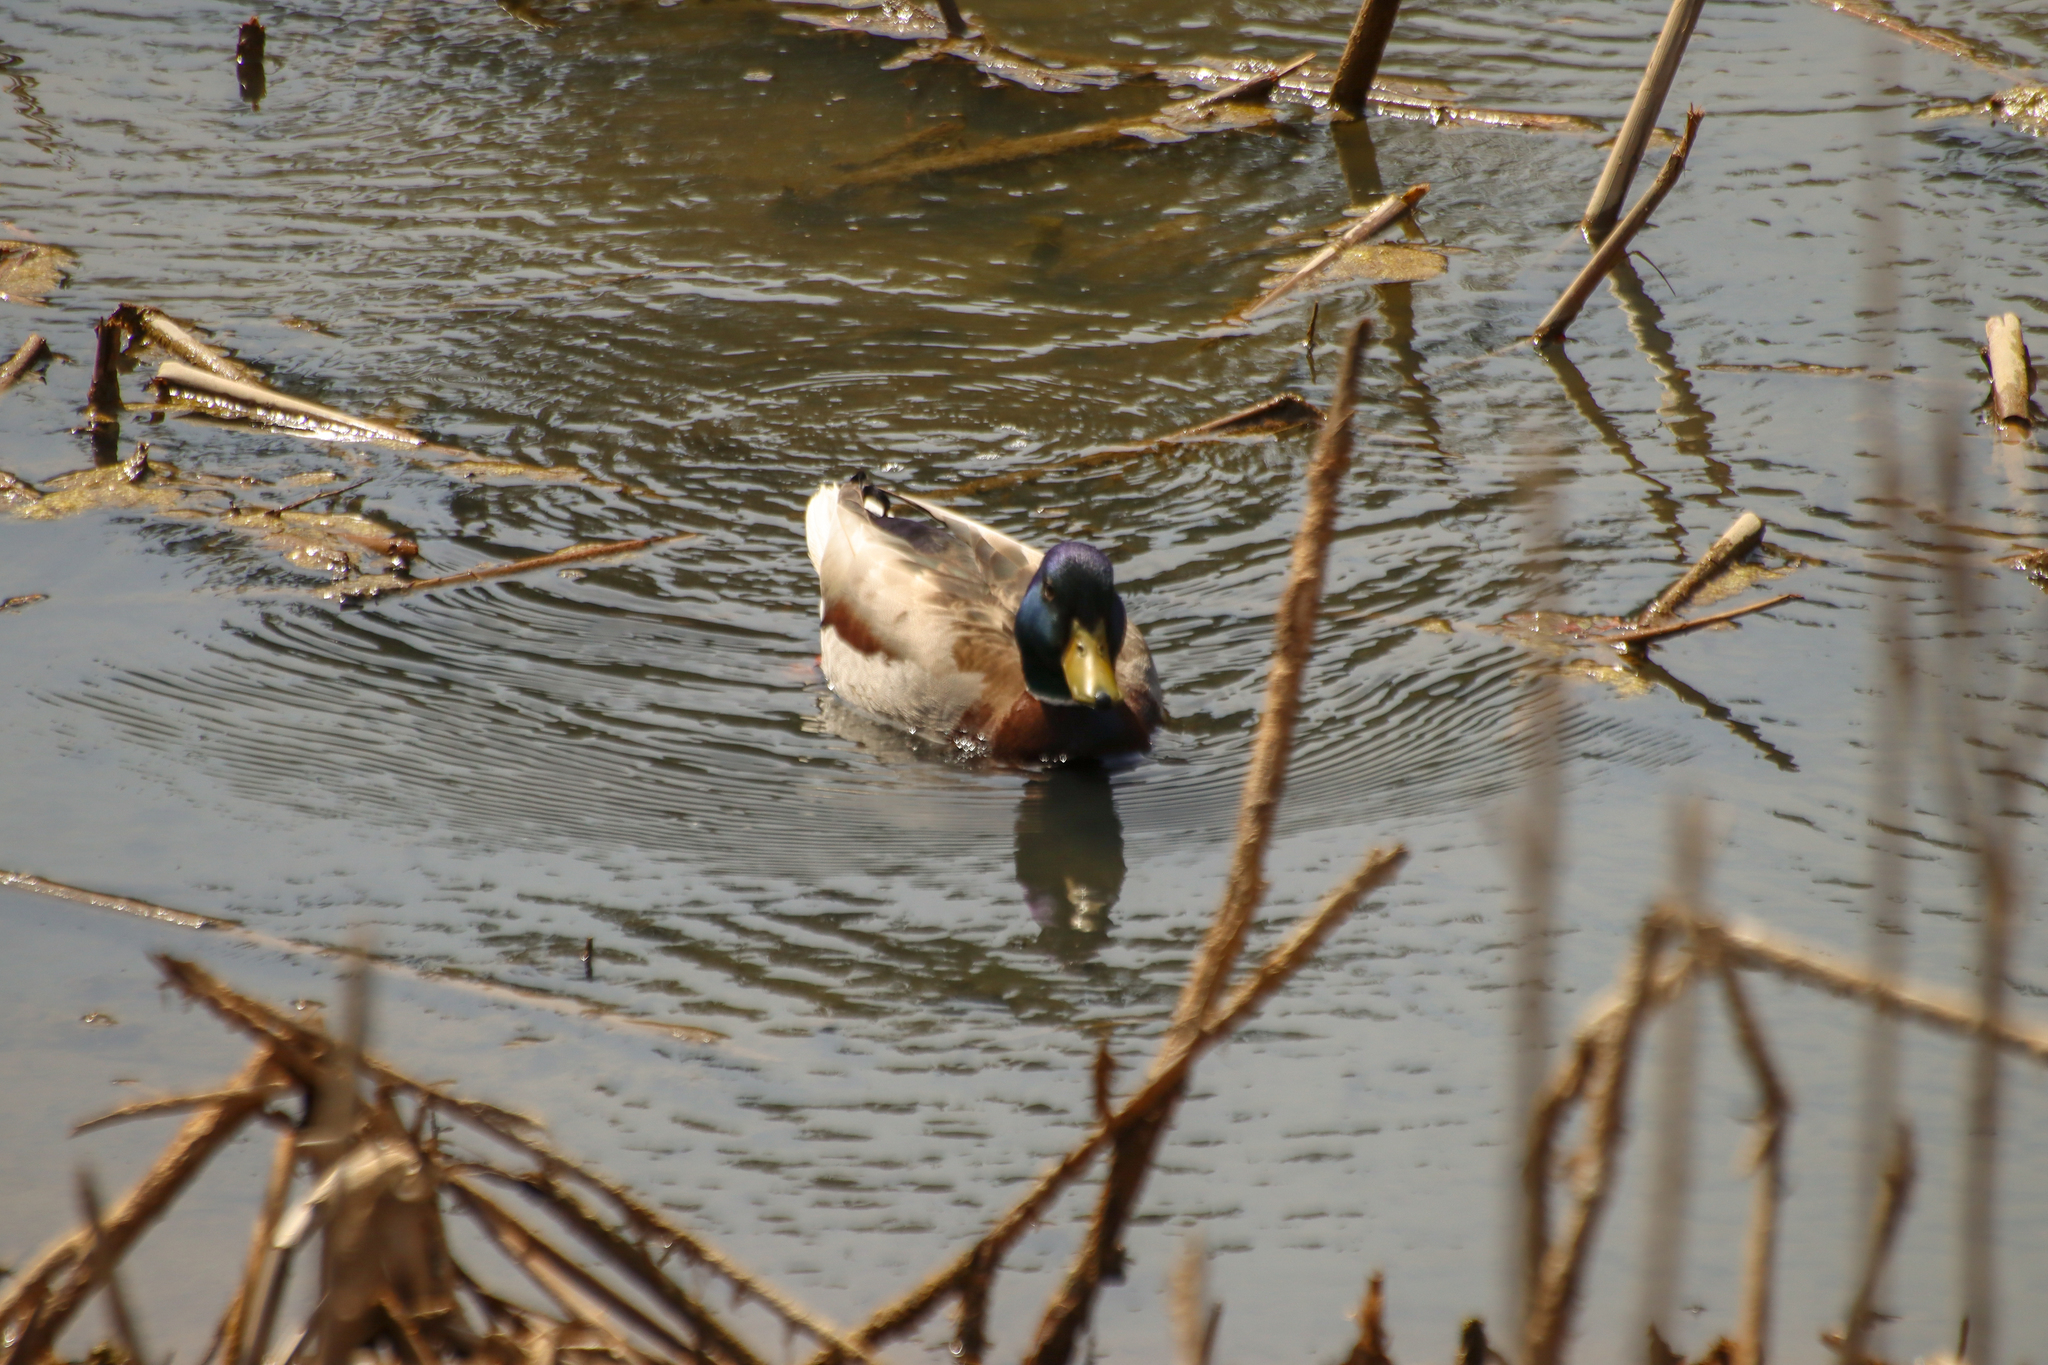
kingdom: Animalia
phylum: Chordata
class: Aves
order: Anseriformes
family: Anatidae
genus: Anas
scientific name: Anas platyrhynchos
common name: Mallard
